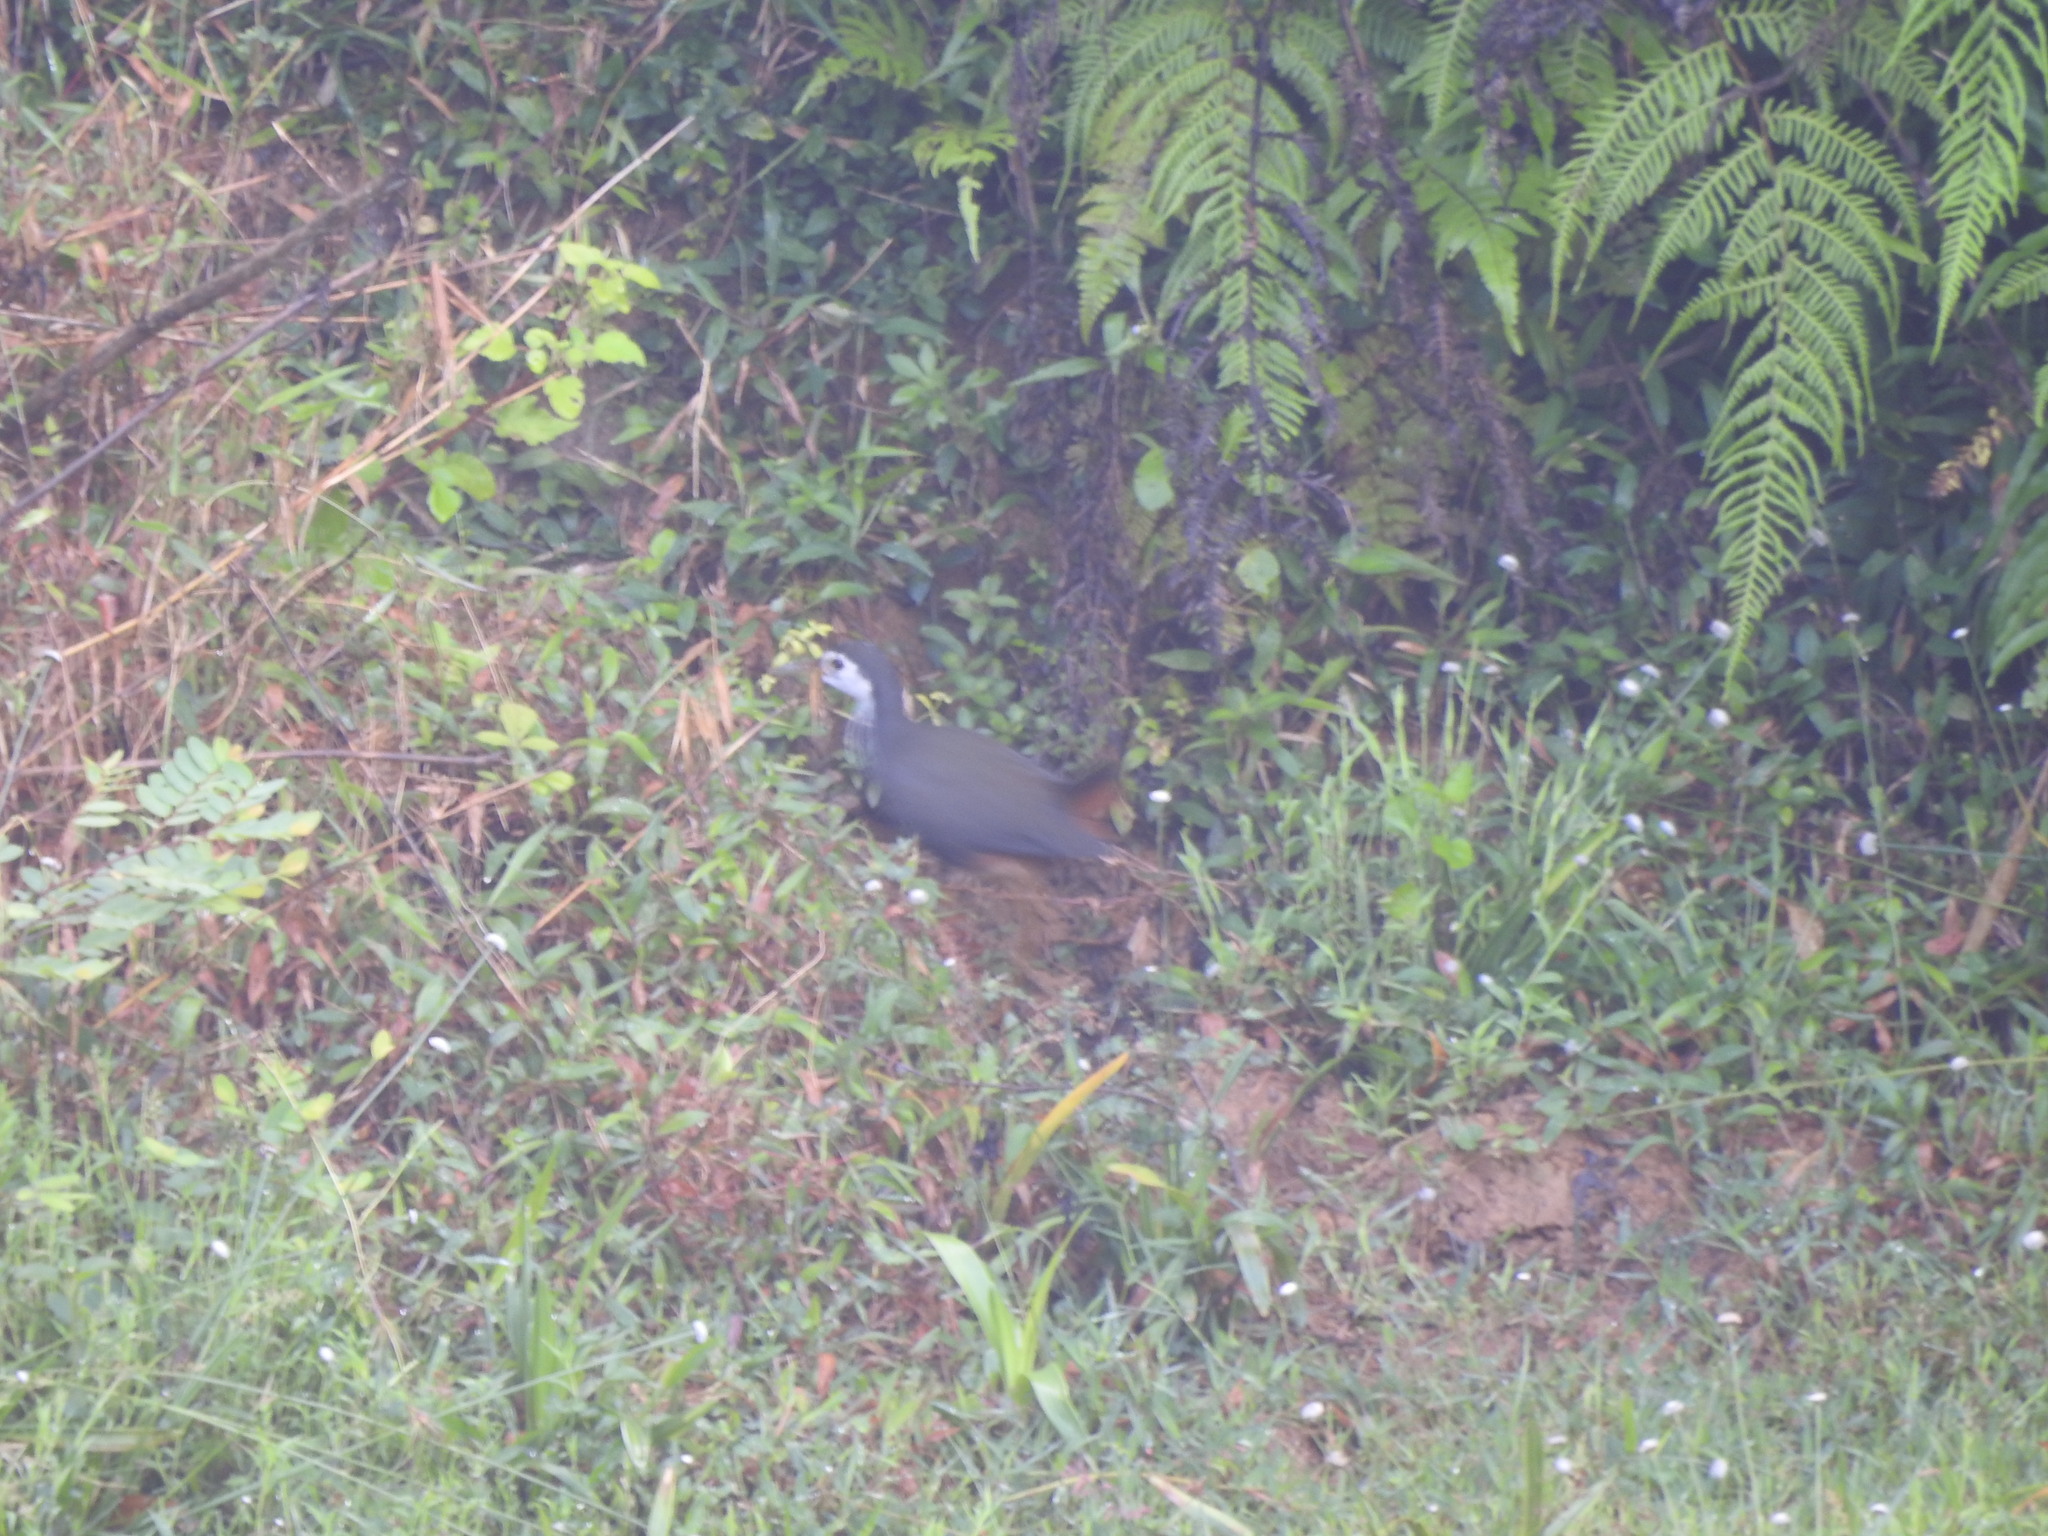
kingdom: Animalia
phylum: Chordata
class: Aves
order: Gruiformes
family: Rallidae
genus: Amaurornis
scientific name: Amaurornis phoenicurus
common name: White-breasted waterhen
